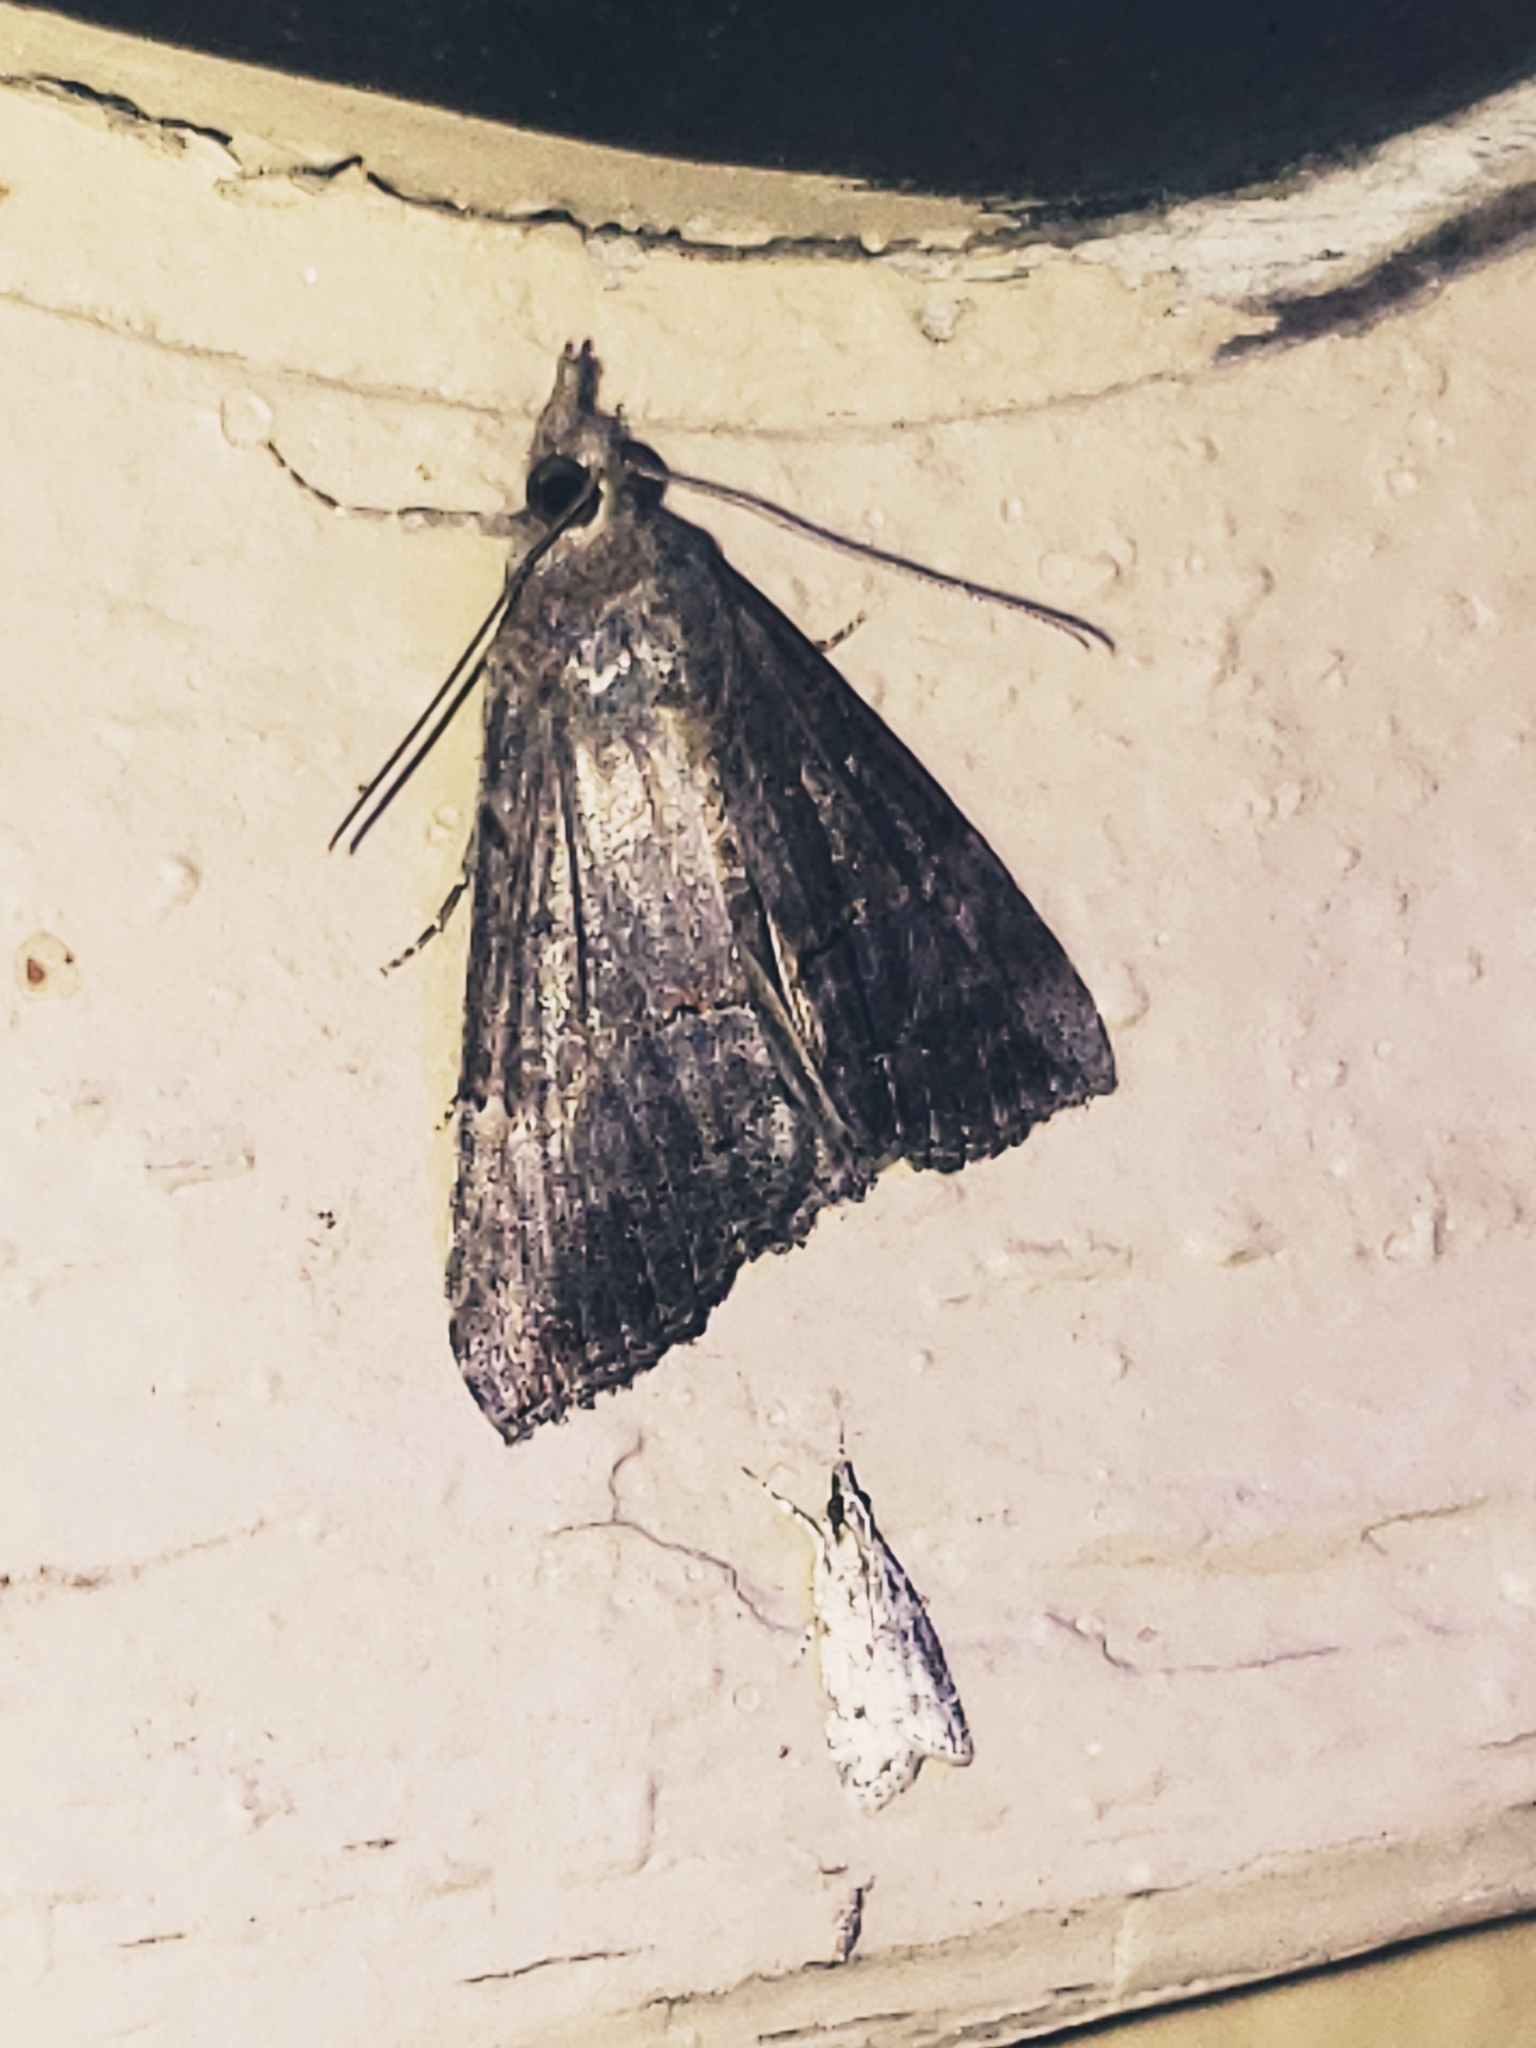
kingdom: Animalia
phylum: Arthropoda
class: Insecta
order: Lepidoptera
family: Erebidae
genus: Hypena
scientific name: Hypena scabra
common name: Green cloverworm
